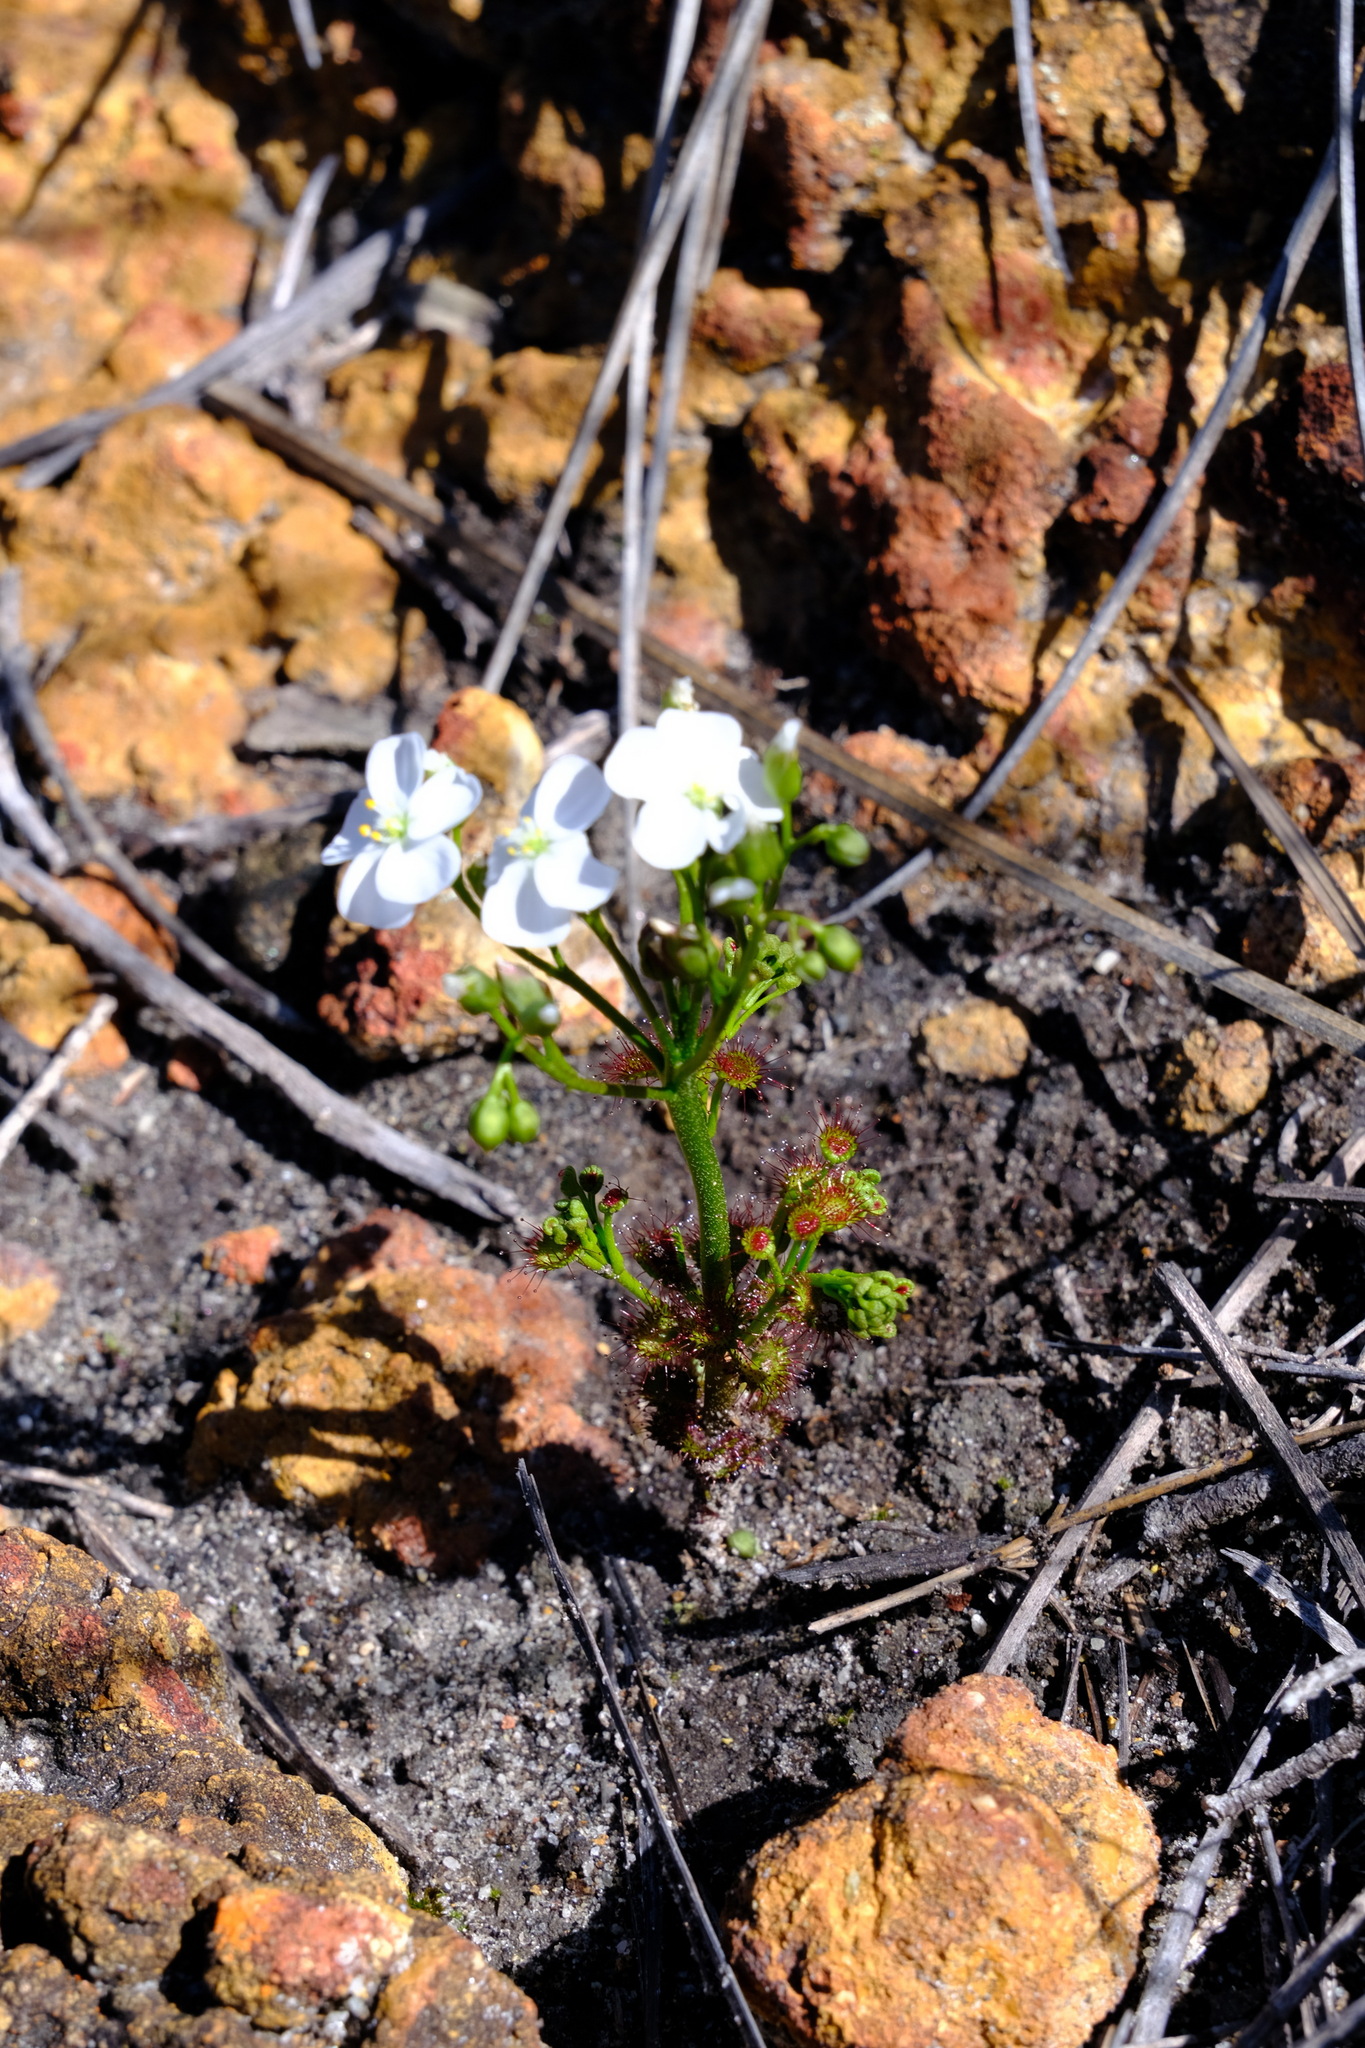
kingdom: Plantae
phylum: Tracheophyta
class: Magnoliopsida
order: Caryophyllales
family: Droseraceae
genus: Drosera
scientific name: Drosera stolonifera
